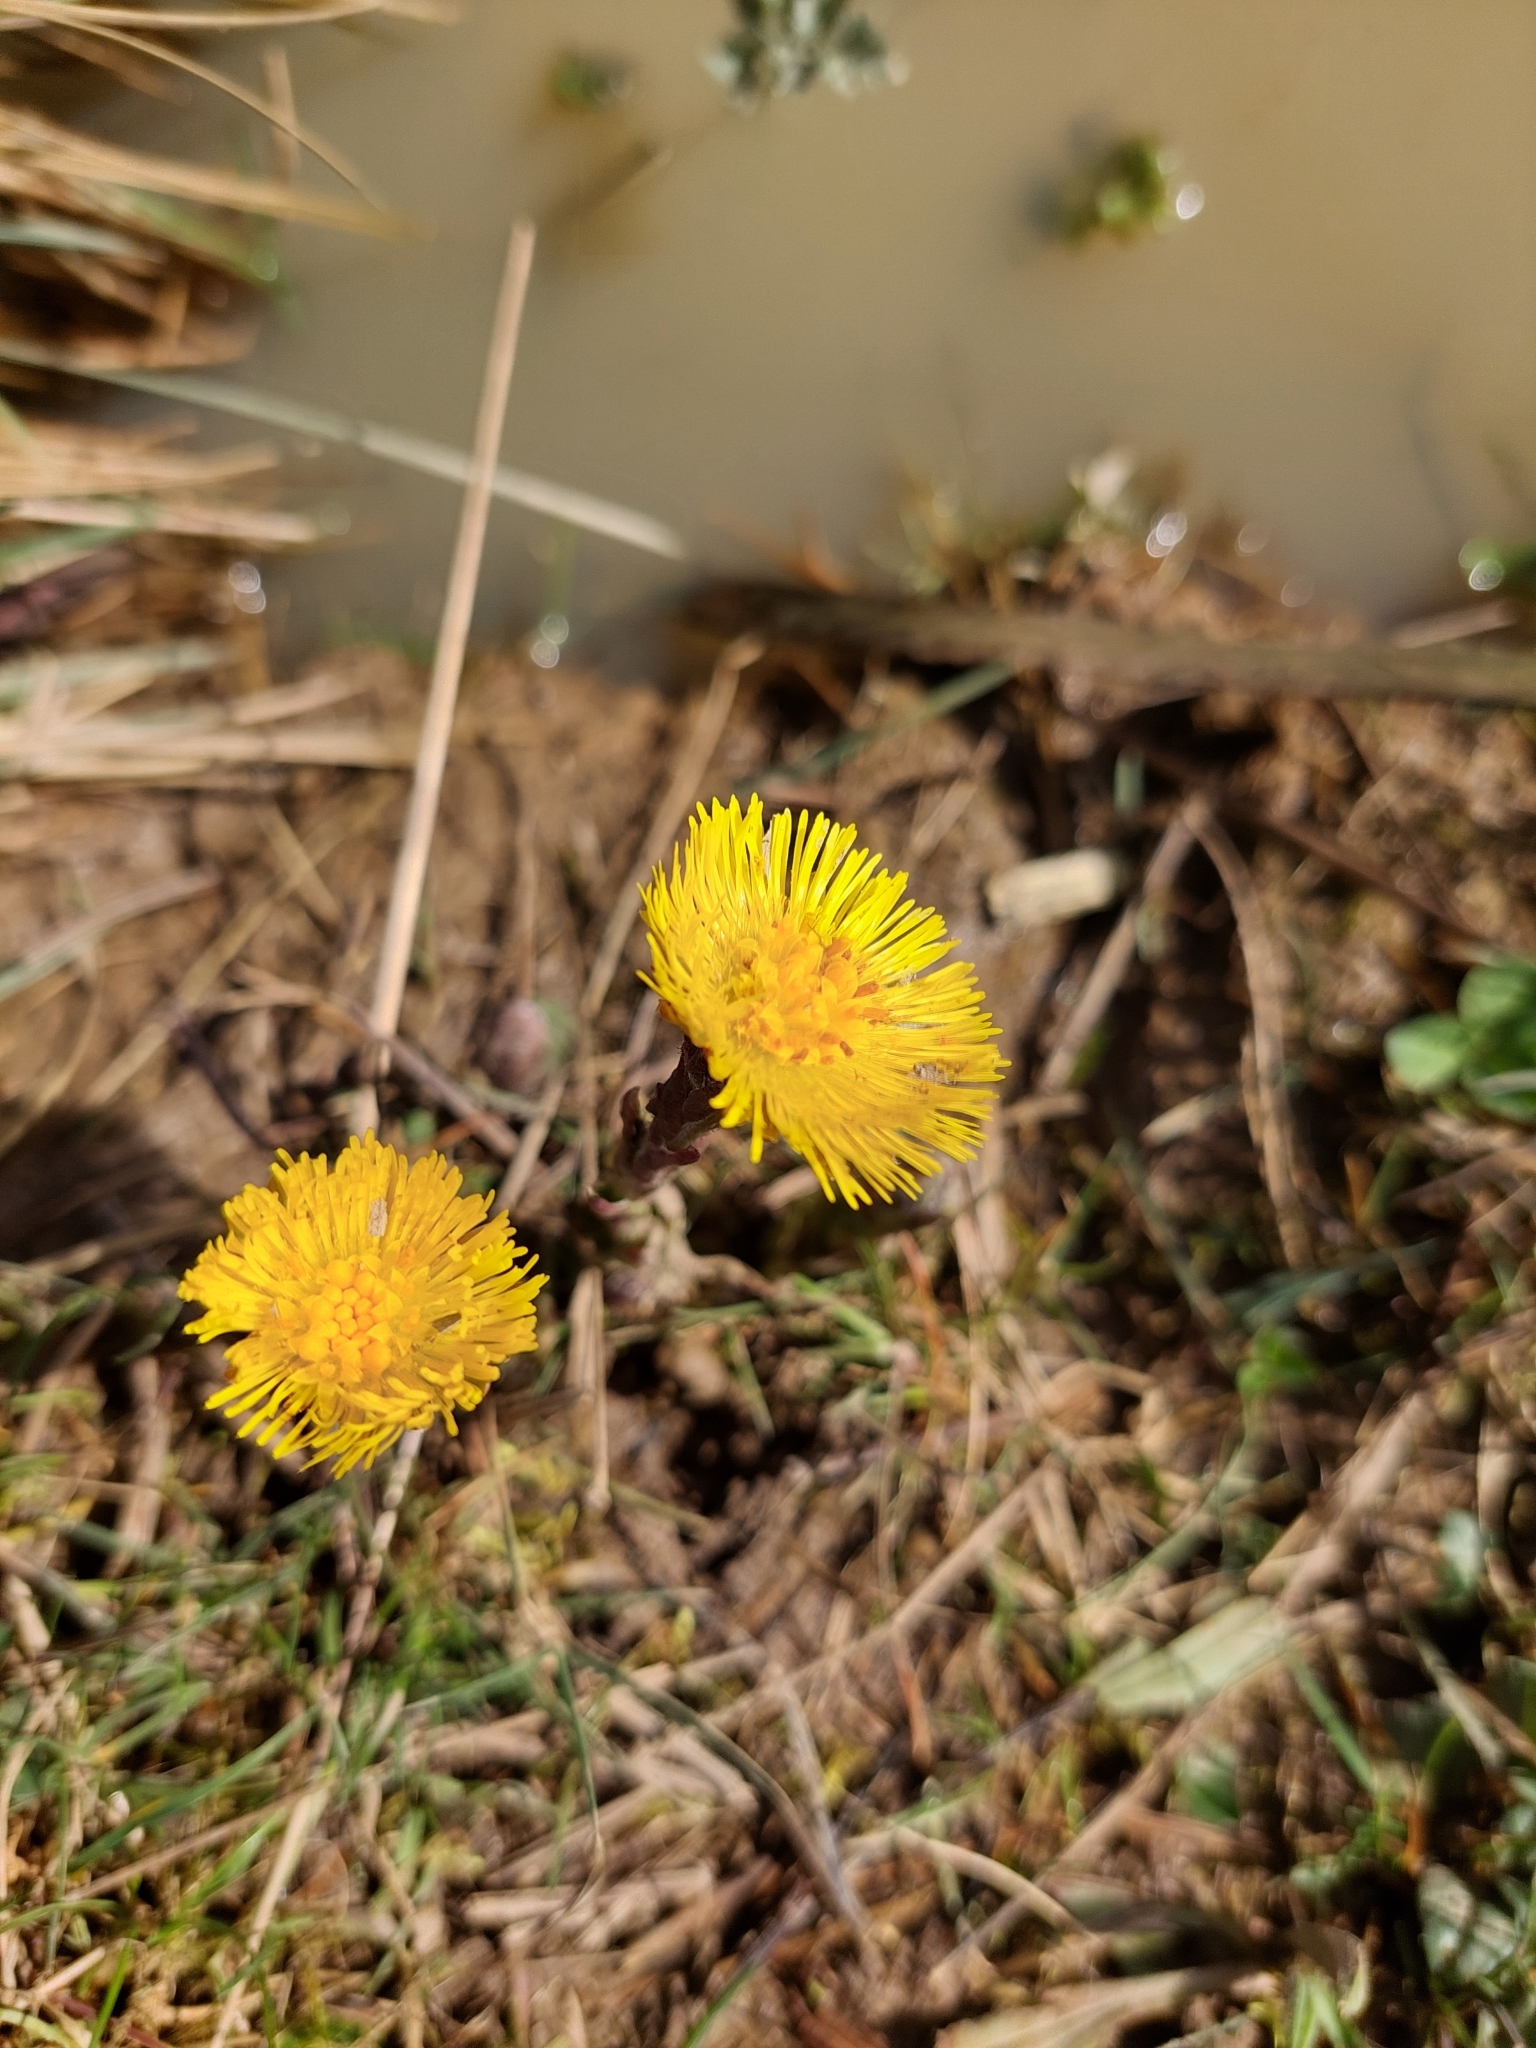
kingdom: Plantae
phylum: Tracheophyta
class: Magnoliopsida
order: Asterales
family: Asteraceae
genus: Tussilago
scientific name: Tussilago farfara
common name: Coltsfoot
